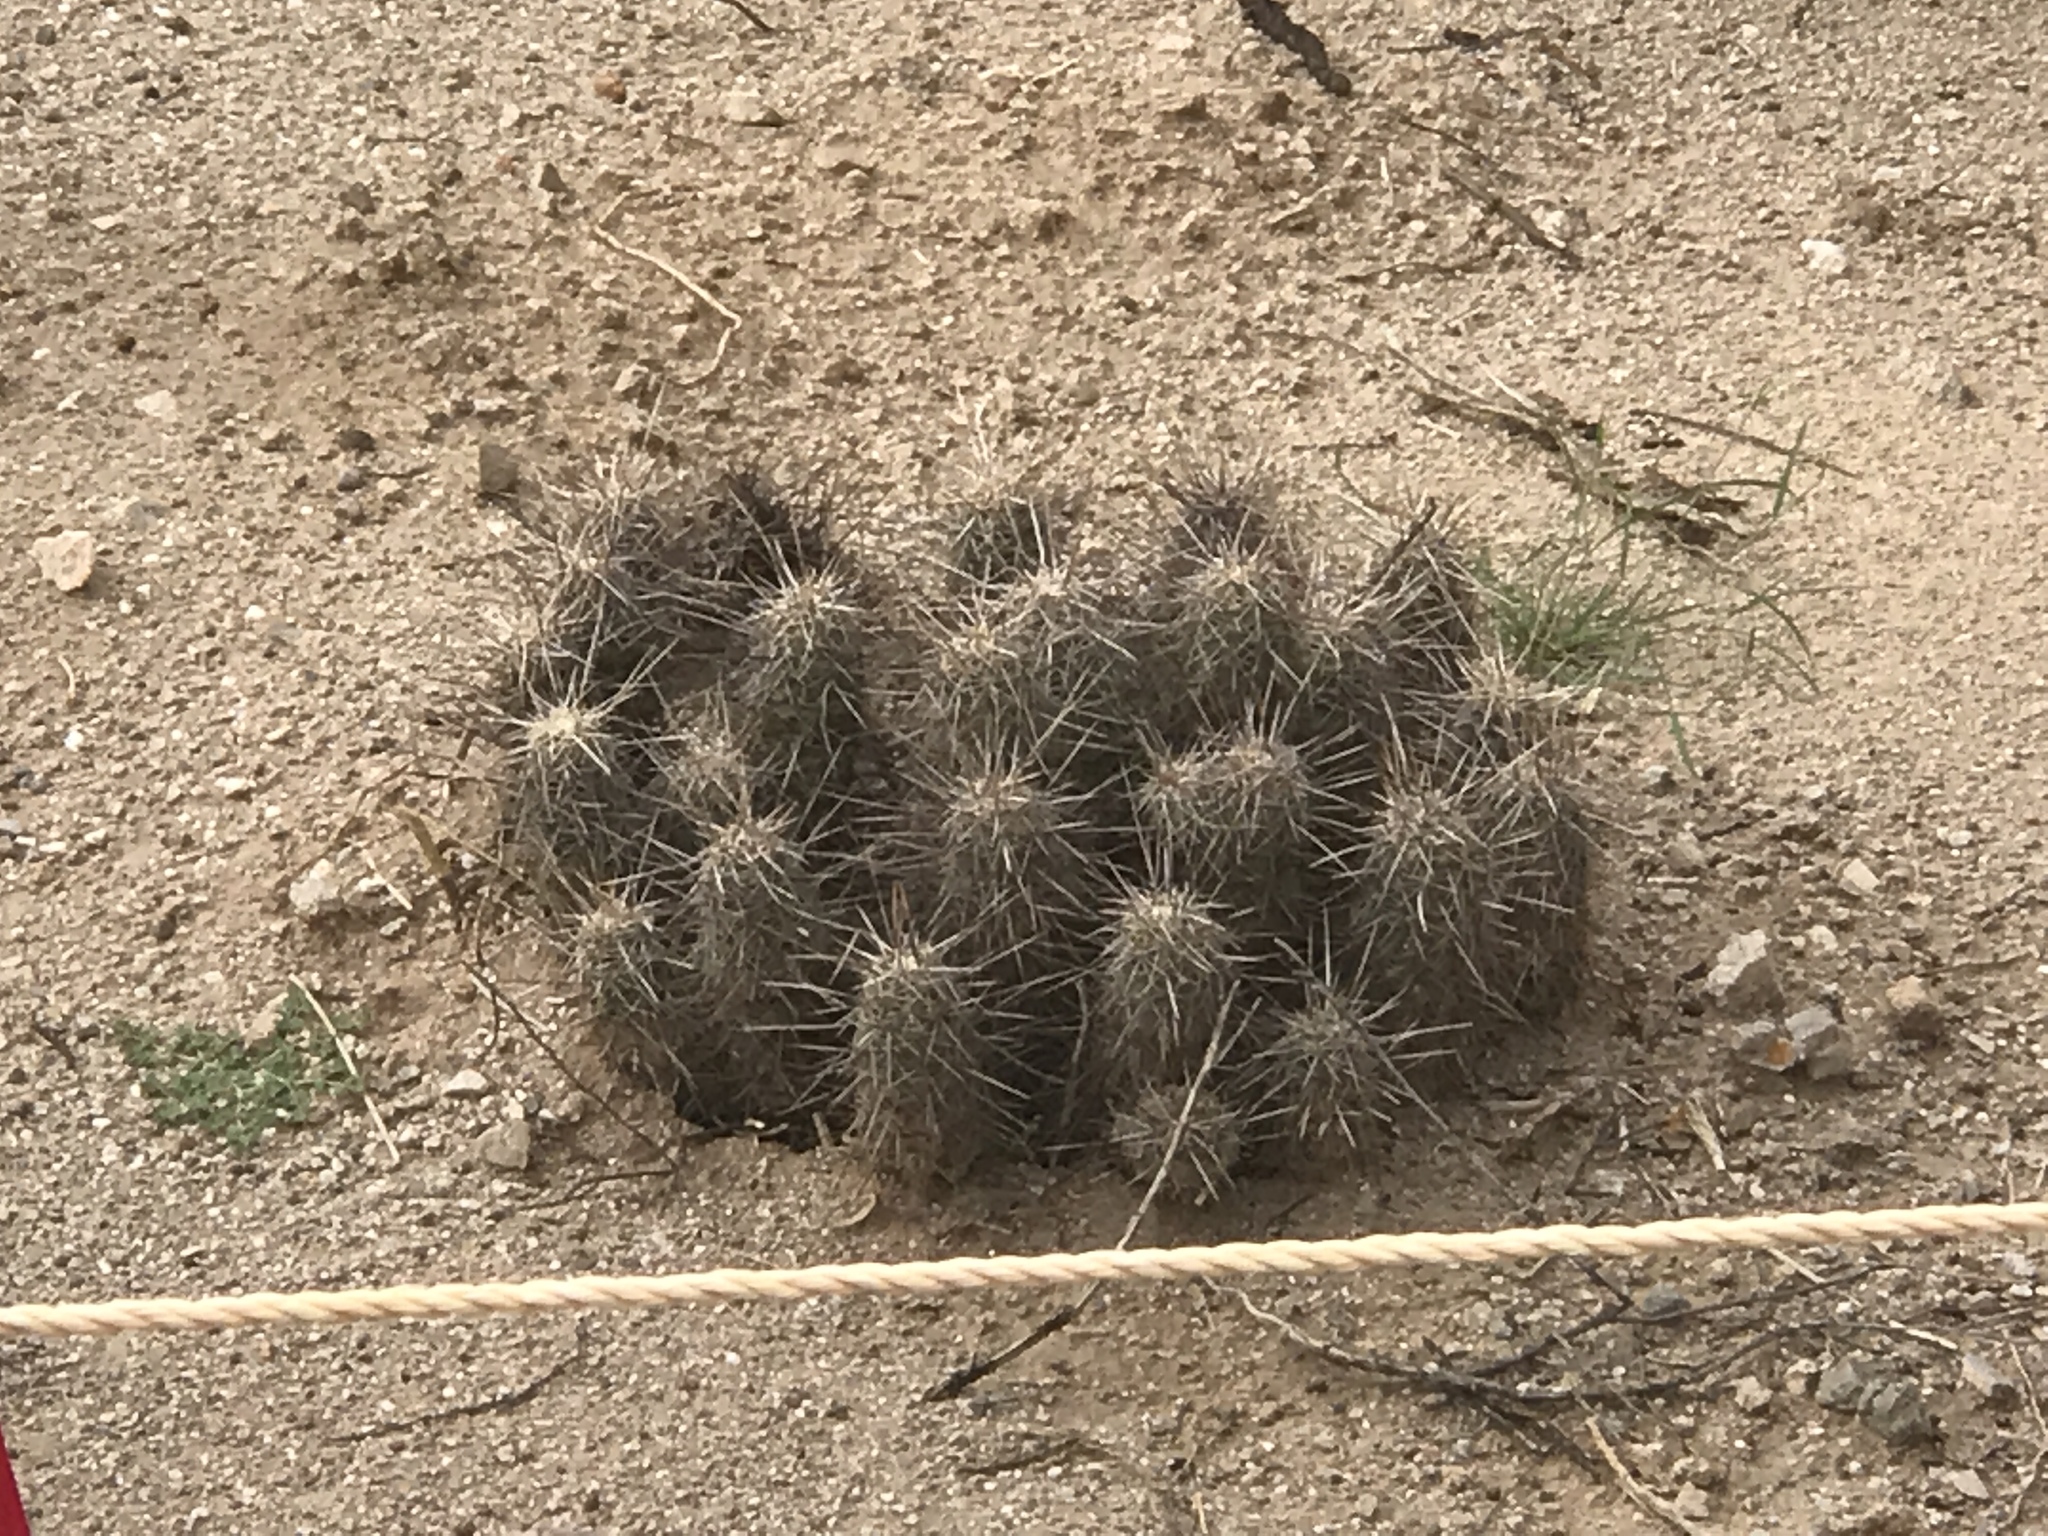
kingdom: Plantae
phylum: Tracheophyta
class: Magnoliopsida
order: Caryophyllales
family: Cactaceae
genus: Echinocereus
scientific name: Echinocereus fasciculatus
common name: Bundle hedgehog
